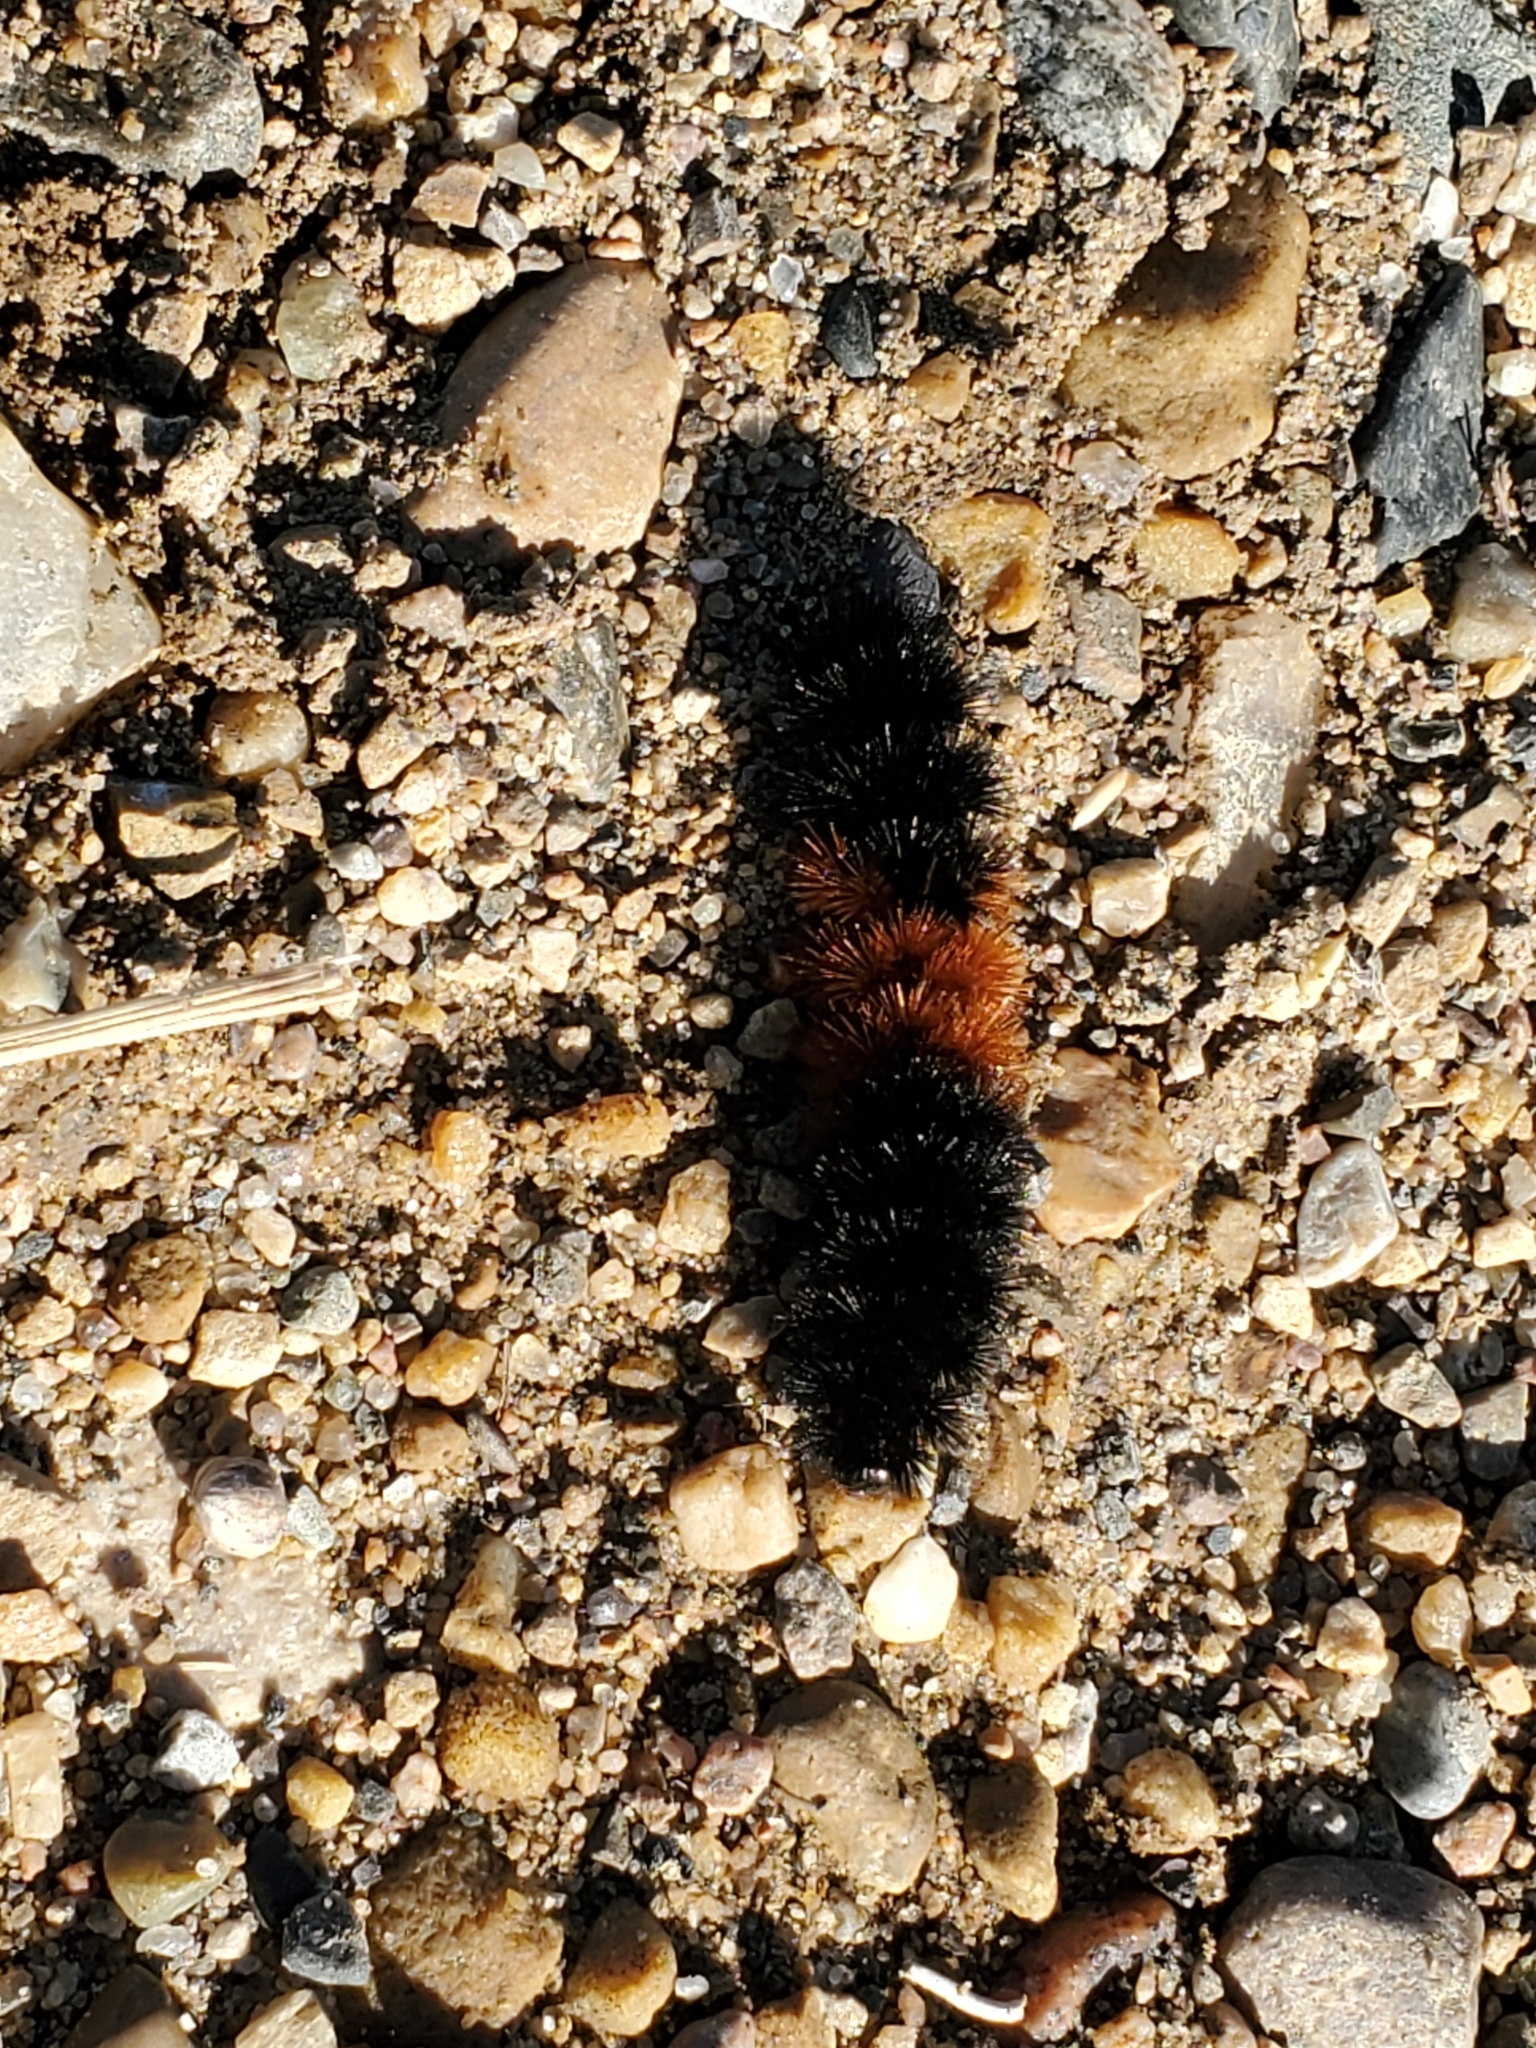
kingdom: Animalia
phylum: Arthropoda
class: Insecta
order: Lepidoptera
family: Erebidae
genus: Pyrrharctia
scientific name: Pyrrharctia isabella
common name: Isabella tiger moth
